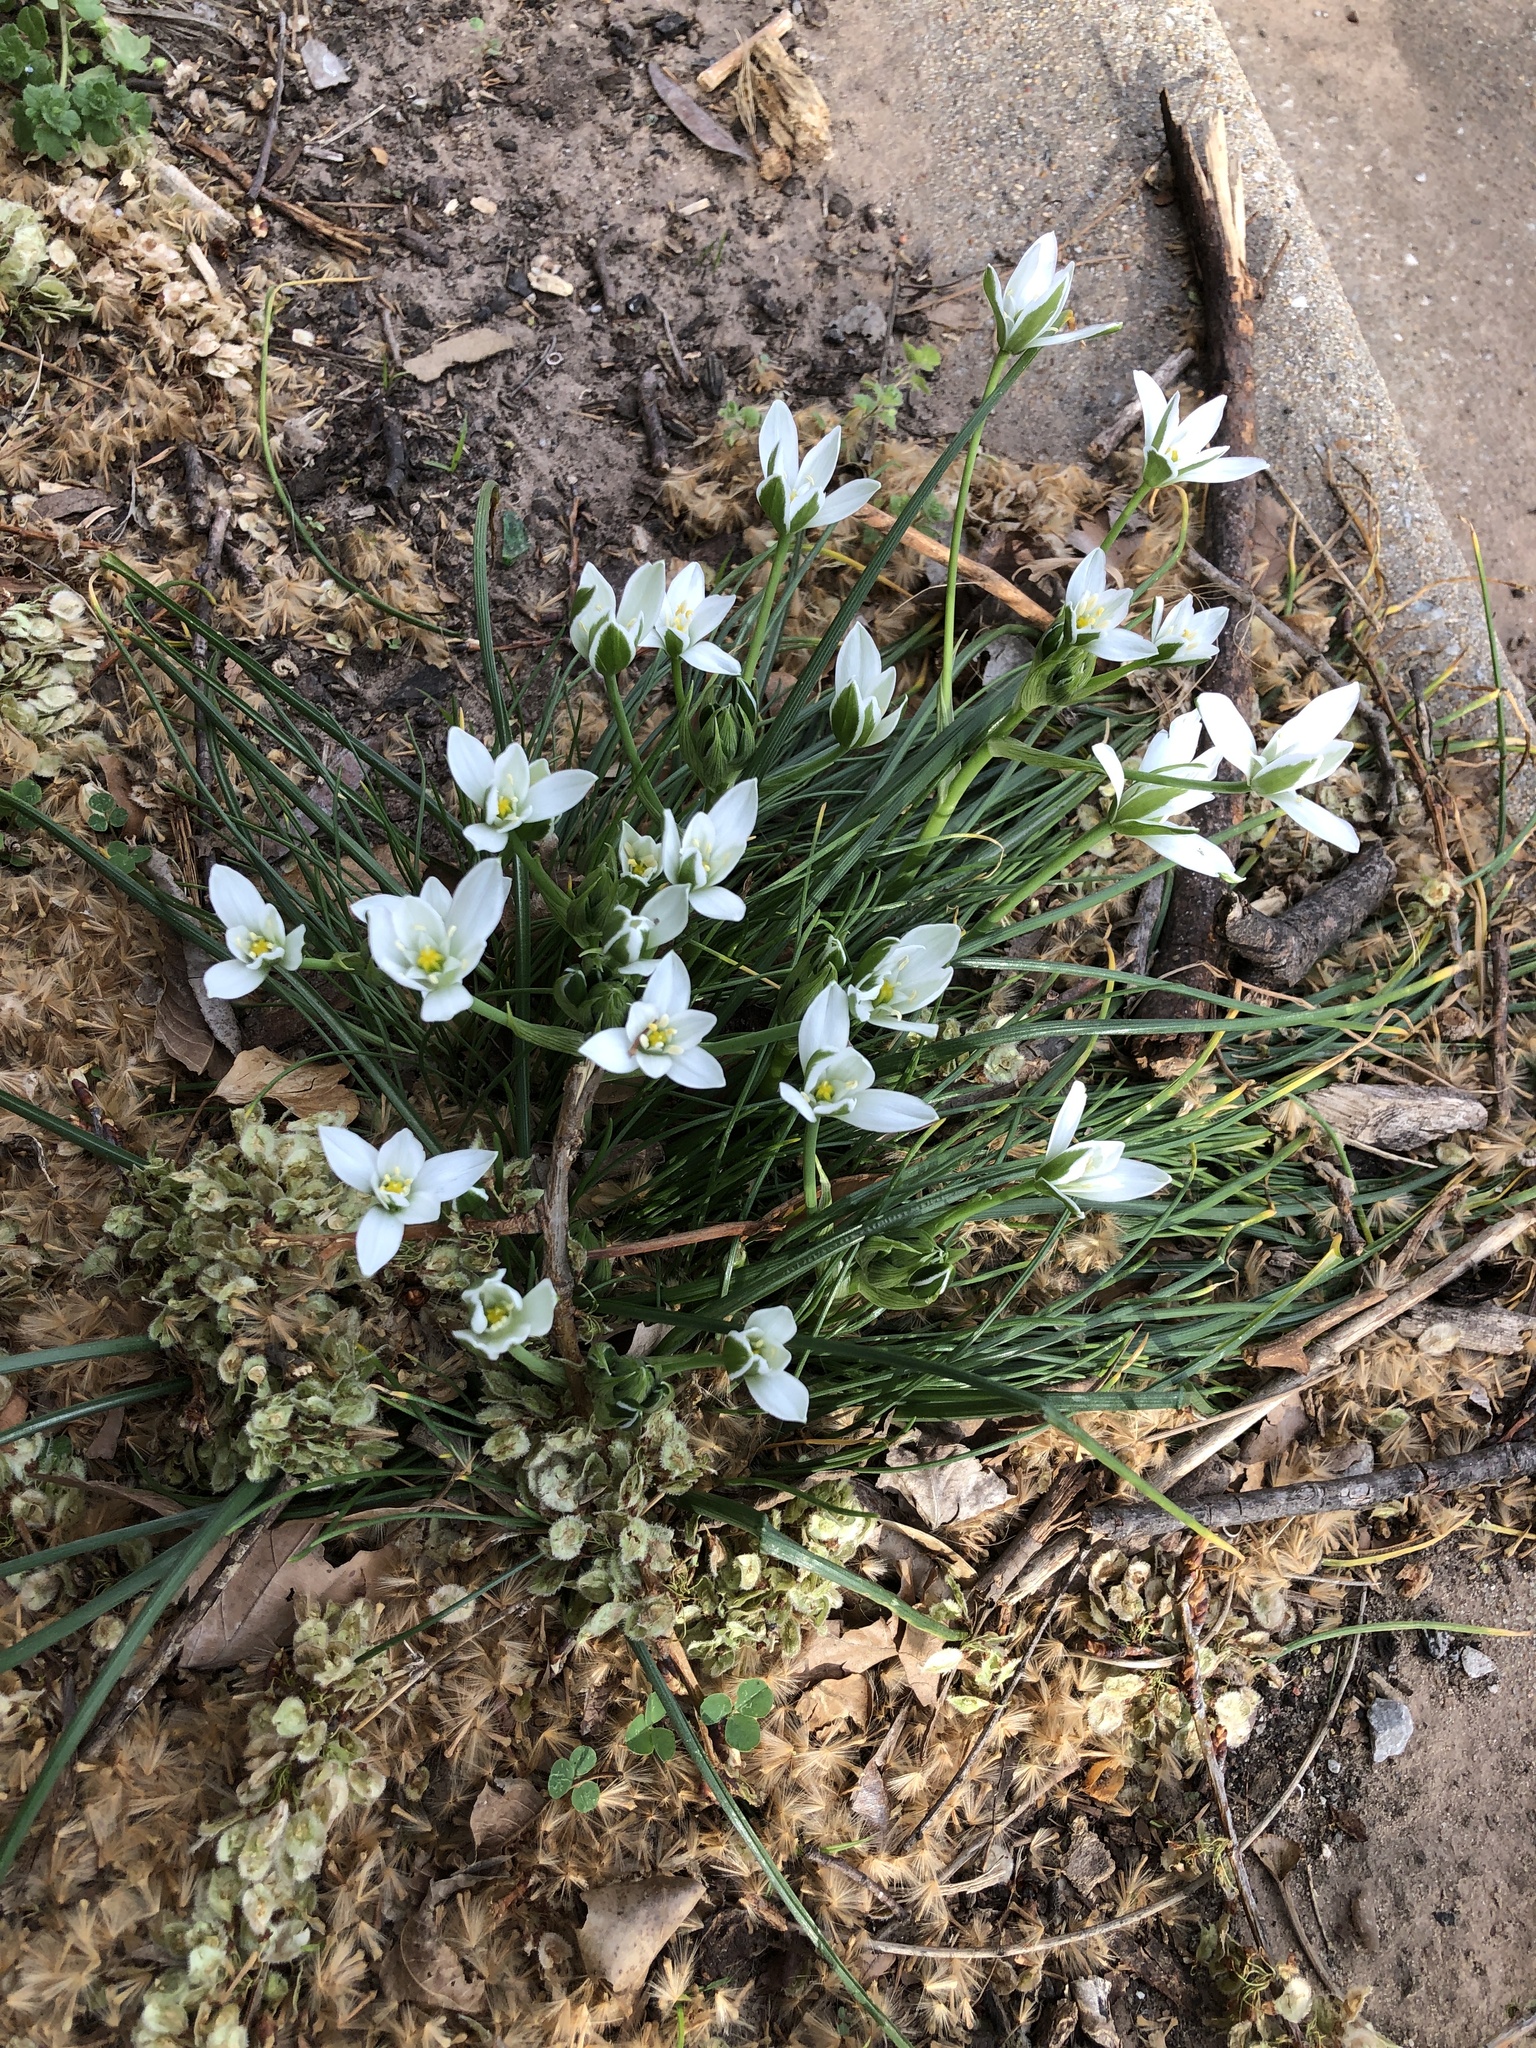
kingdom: Plantae
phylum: Tracheophyta
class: Liliopsida
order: Asparagales
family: Asparagaceae
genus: Ornithogalum
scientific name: Ornithogalum umbellatum
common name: Garden star-of-bethlehem
